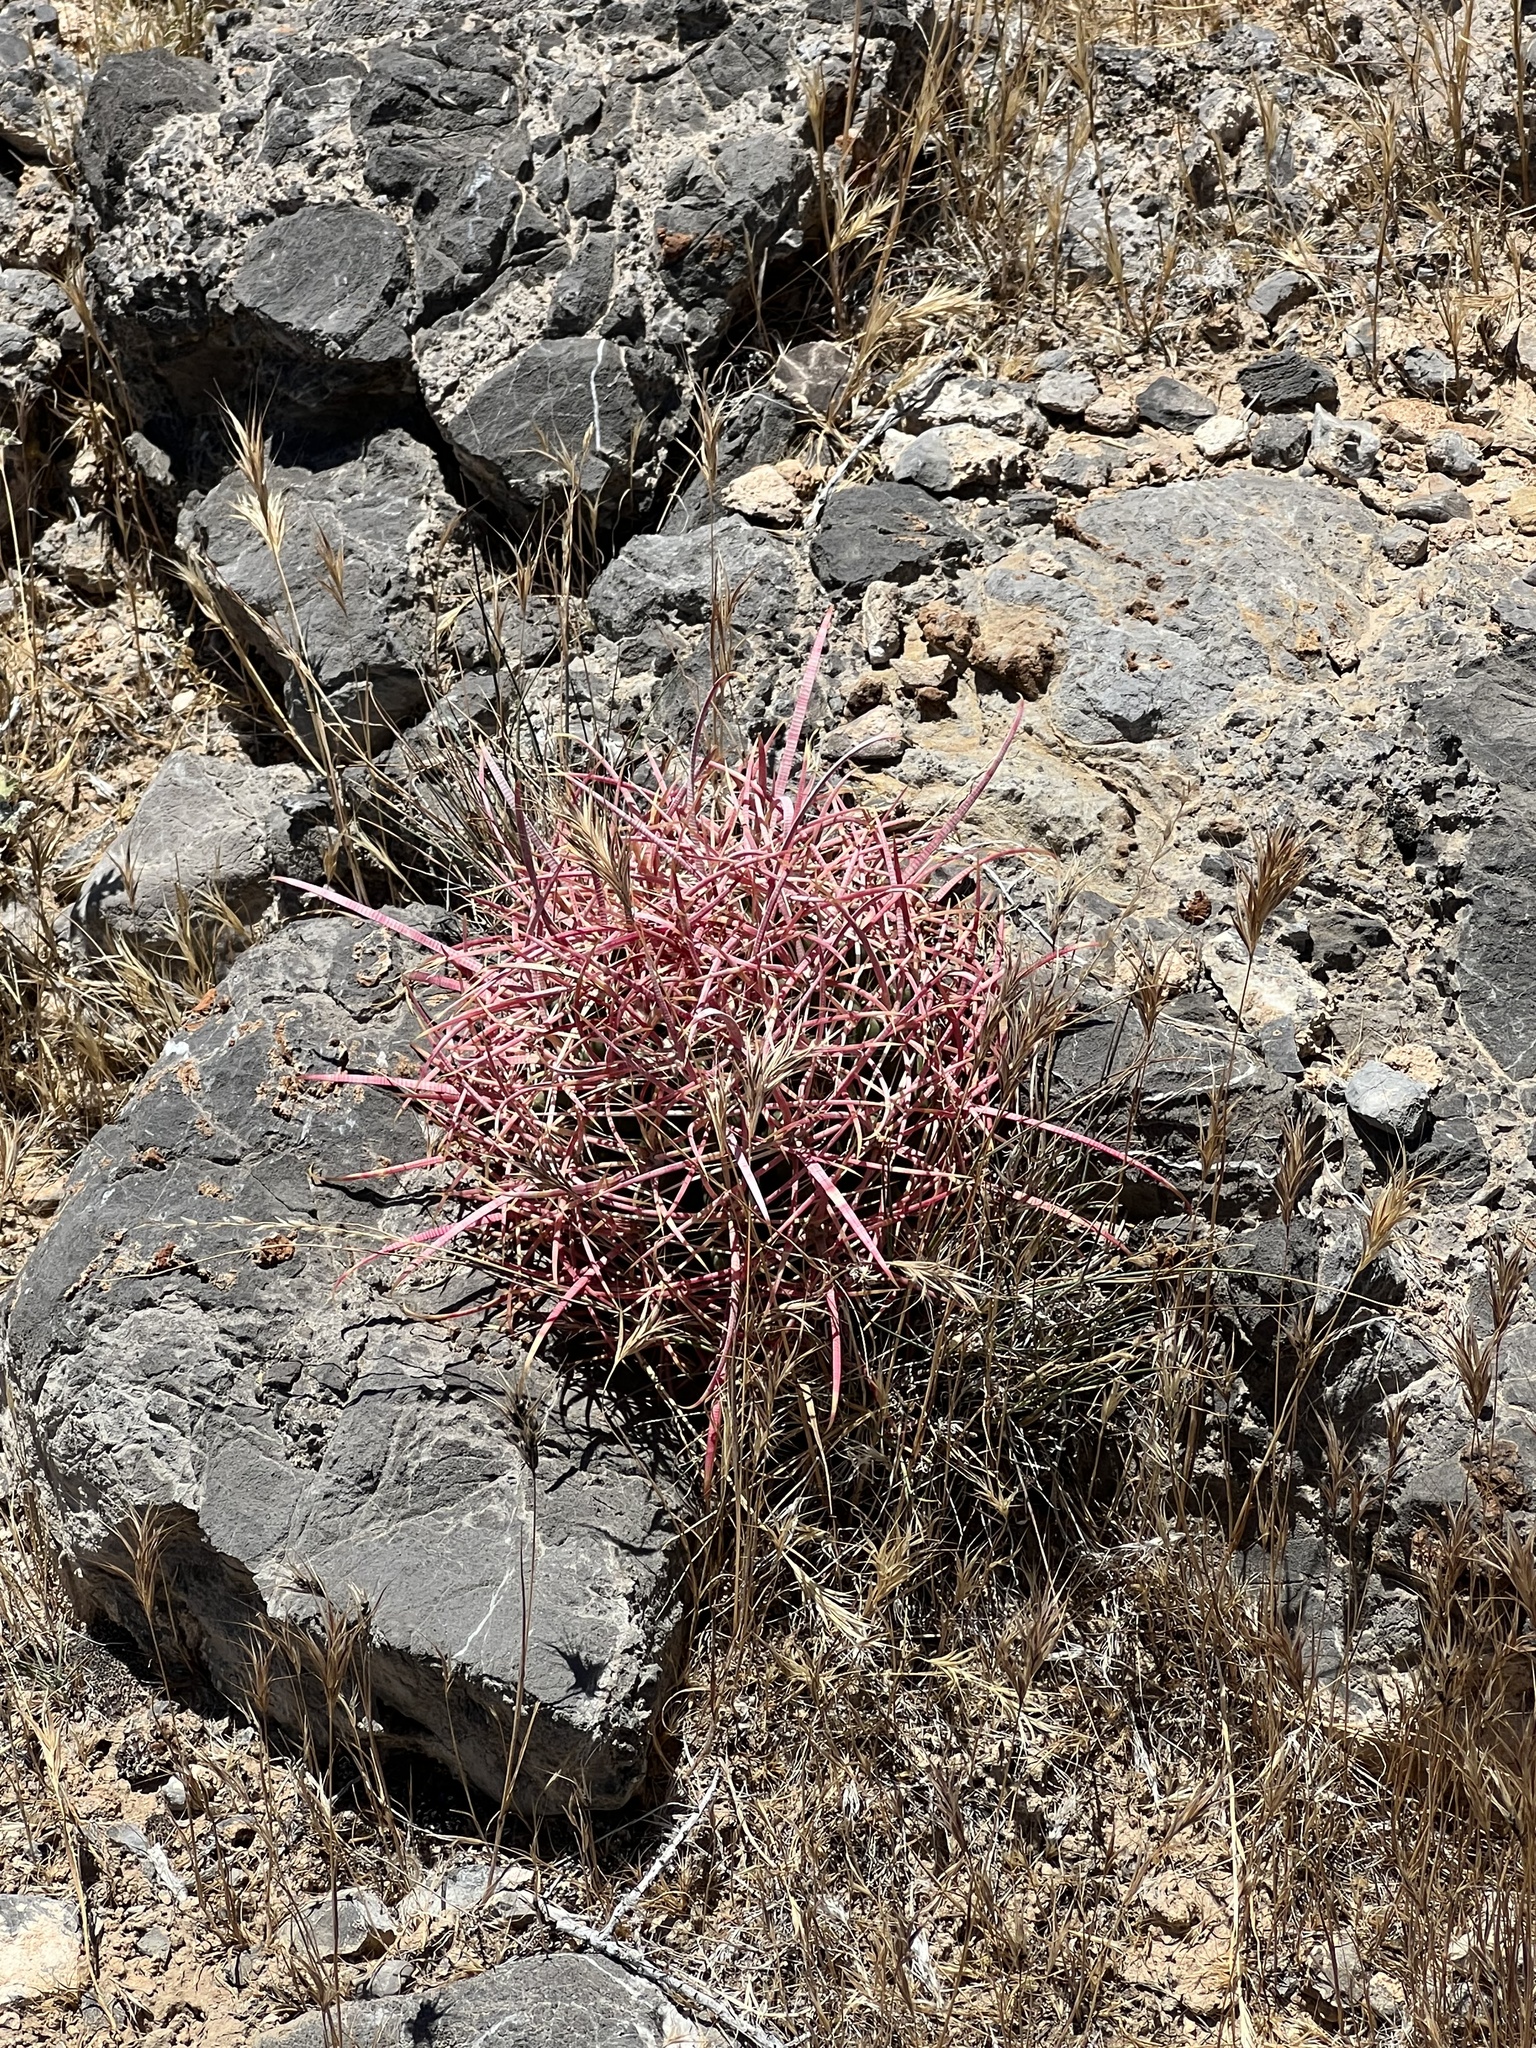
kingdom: Plantae
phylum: Tracheophyta
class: Magnoliopsida
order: Caryophyllales
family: Cactaceae
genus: Ferocactus
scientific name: Ferocactus cylindraceus
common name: California barrel cactus
